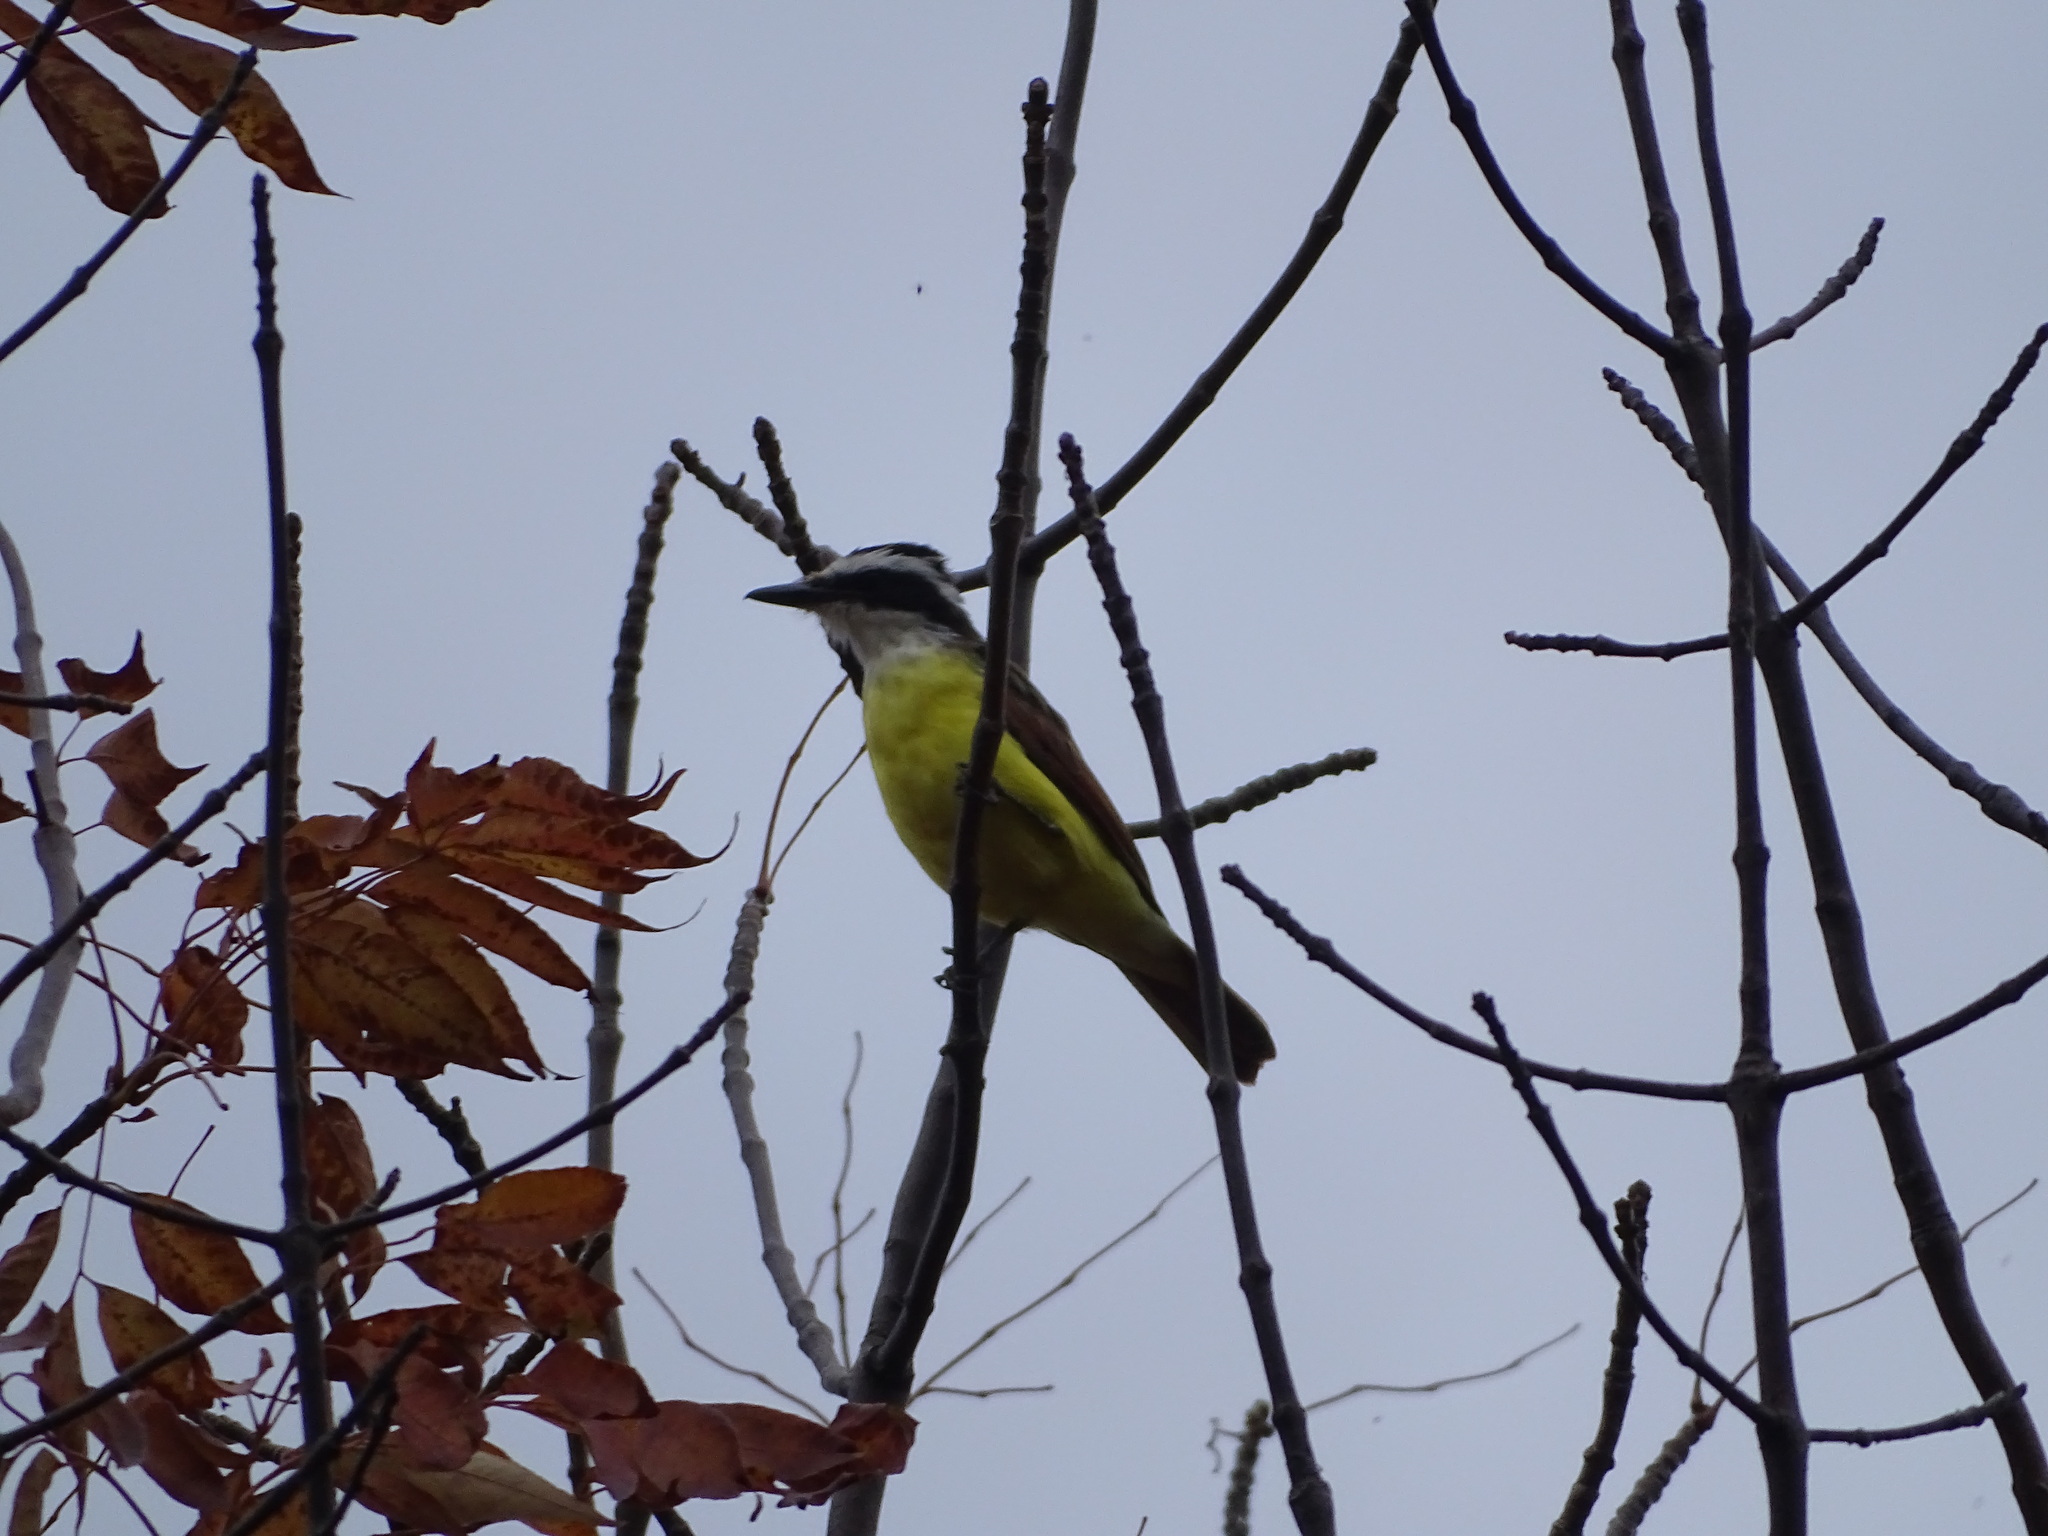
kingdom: Animalia
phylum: Chordata
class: Aves
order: Passeriformes
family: Tyrannidae
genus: Pitangus
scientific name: Pitangus sulphuratus
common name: Great kiskadee
